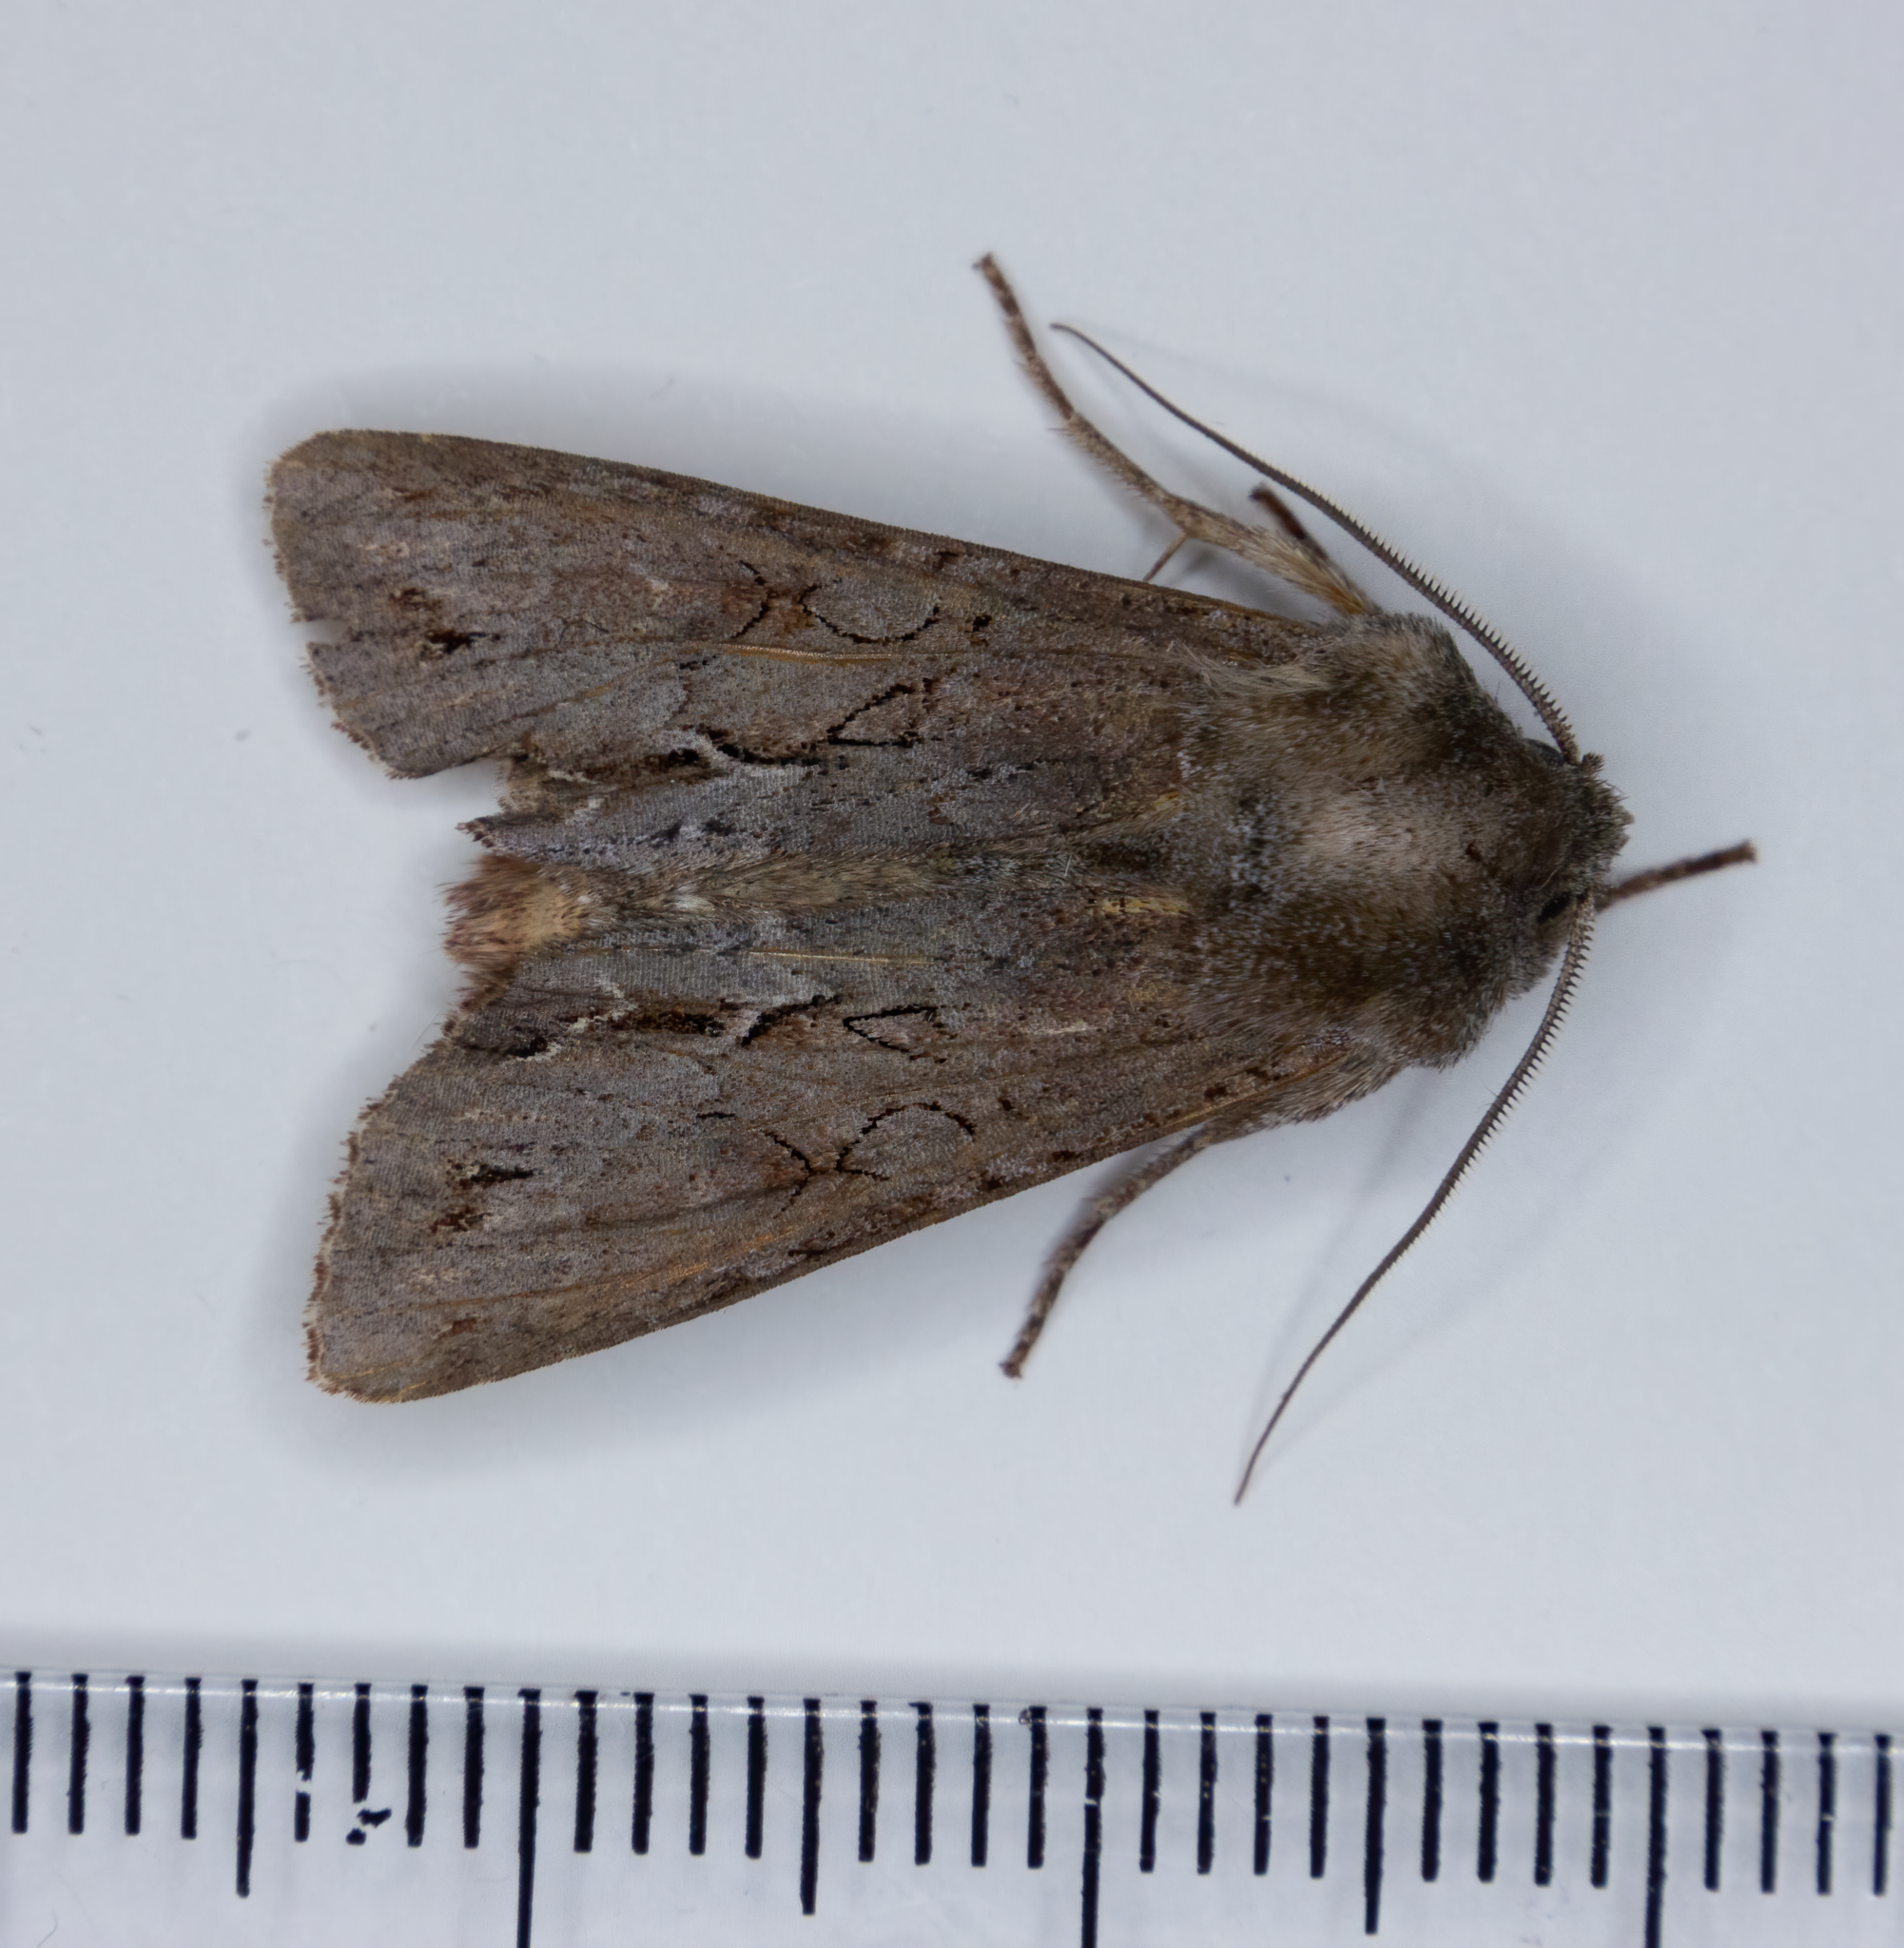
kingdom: Animalia
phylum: Arthropoda
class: Insecta
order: Lepidoptera
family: Noctuidae
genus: Ichneutica
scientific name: Ichneutica
